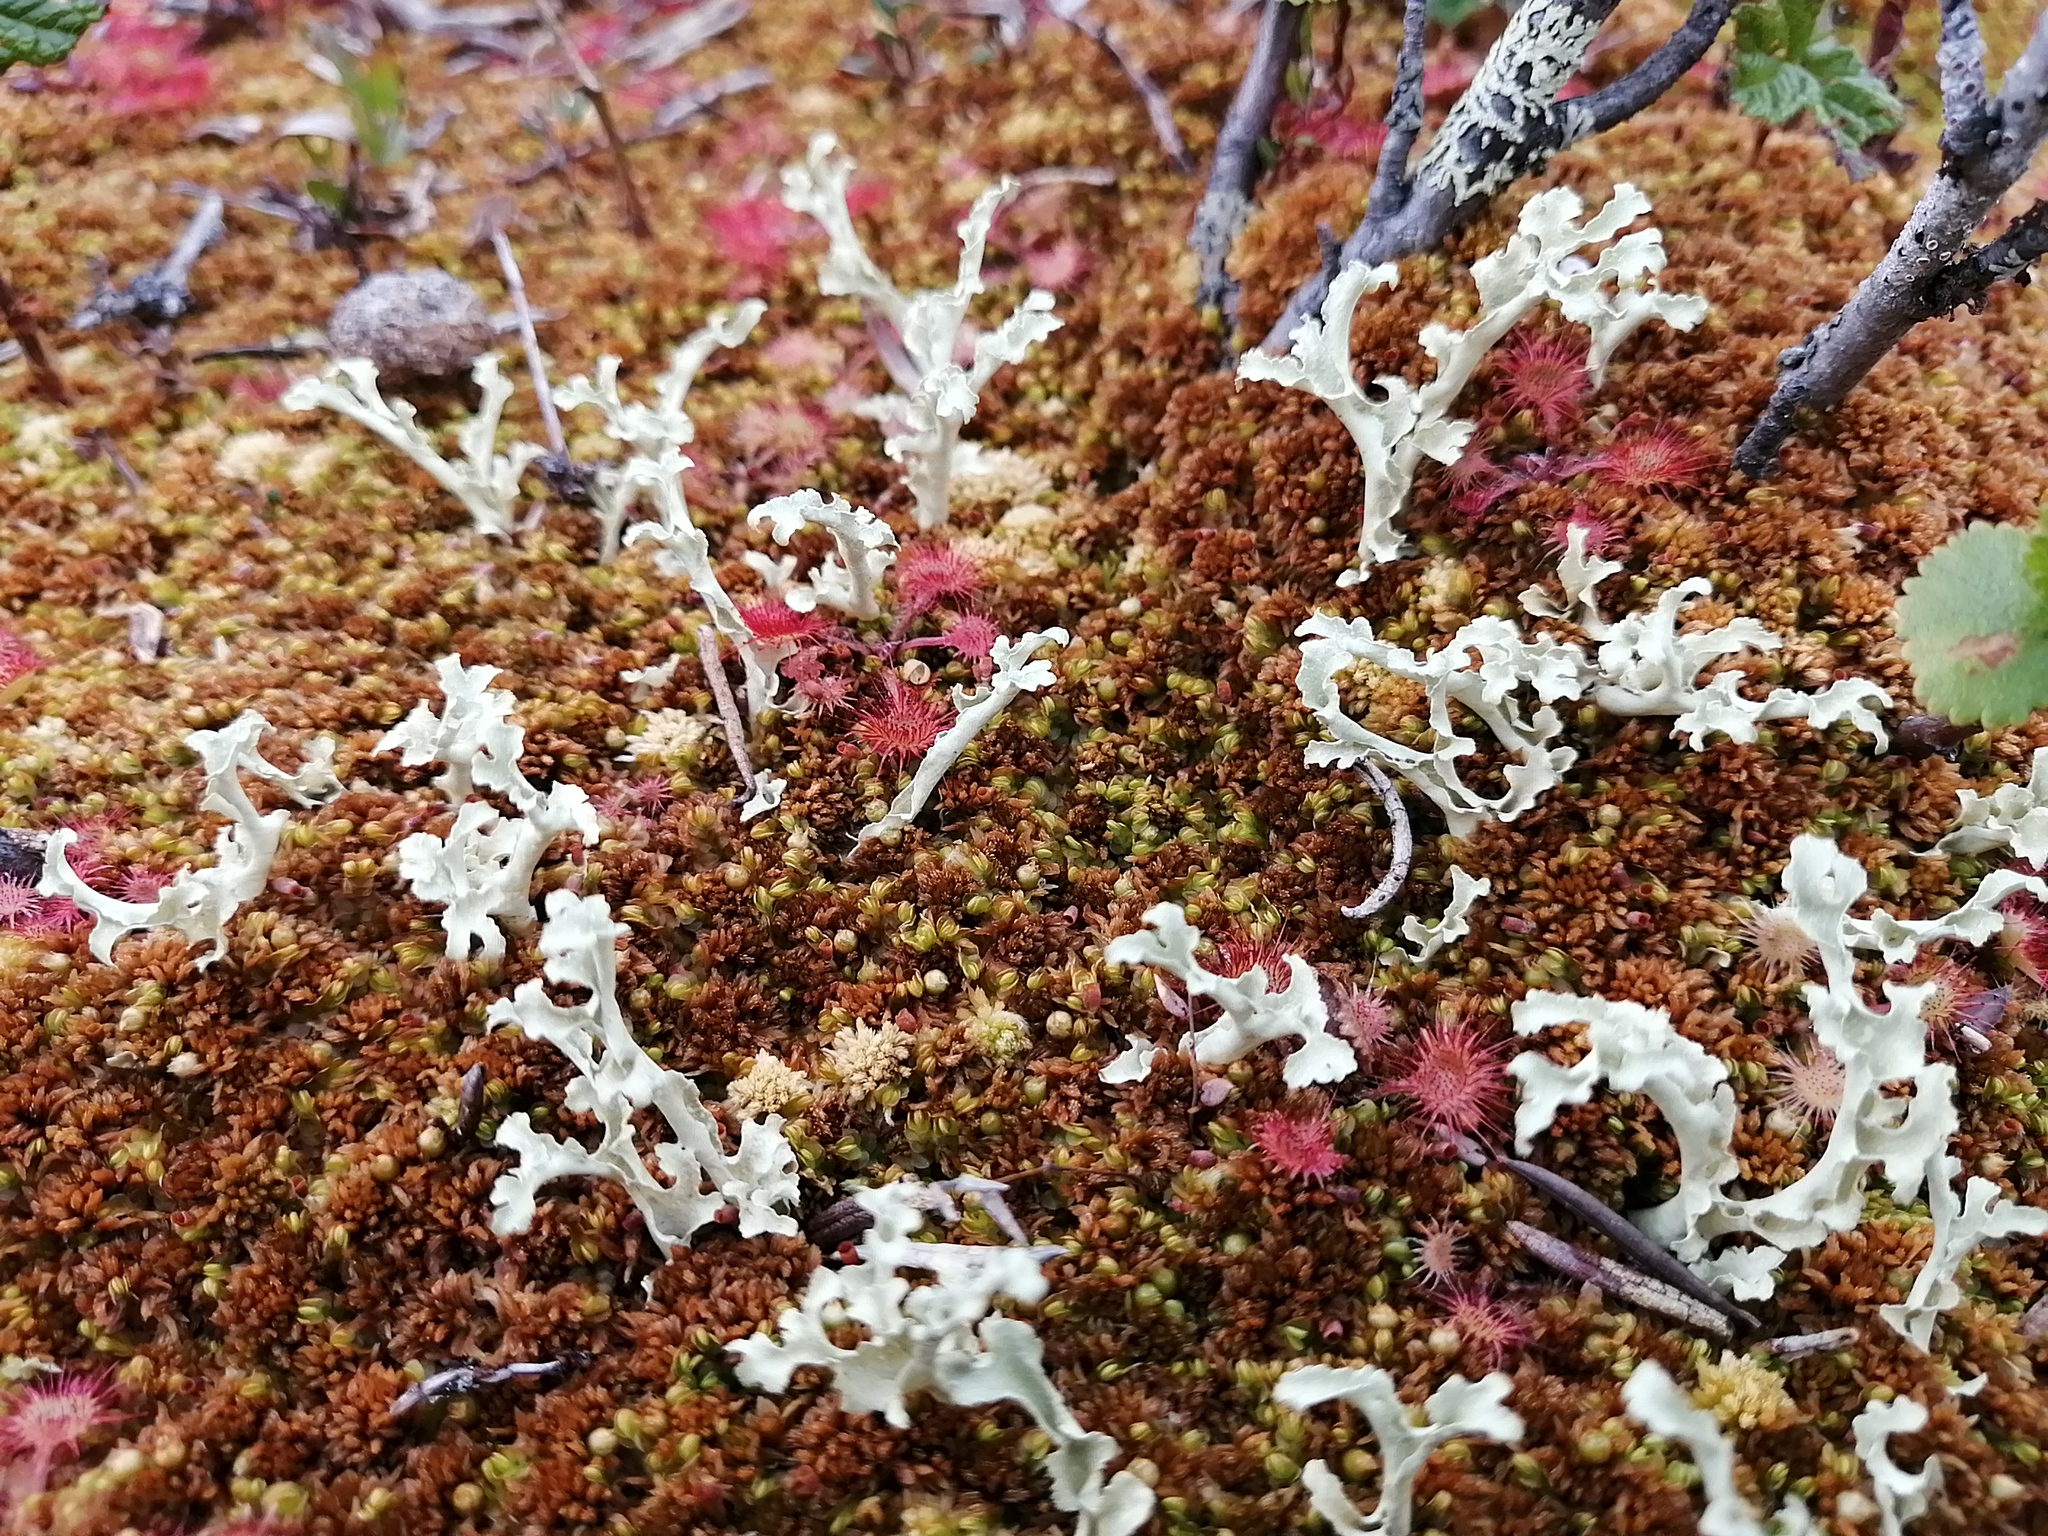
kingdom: Fungi
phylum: Ascomycota
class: Lecanoromycetes
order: Lecanorales
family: Parmeliaceae
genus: Nephromopsis
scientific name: Nephromopsis cucullata
